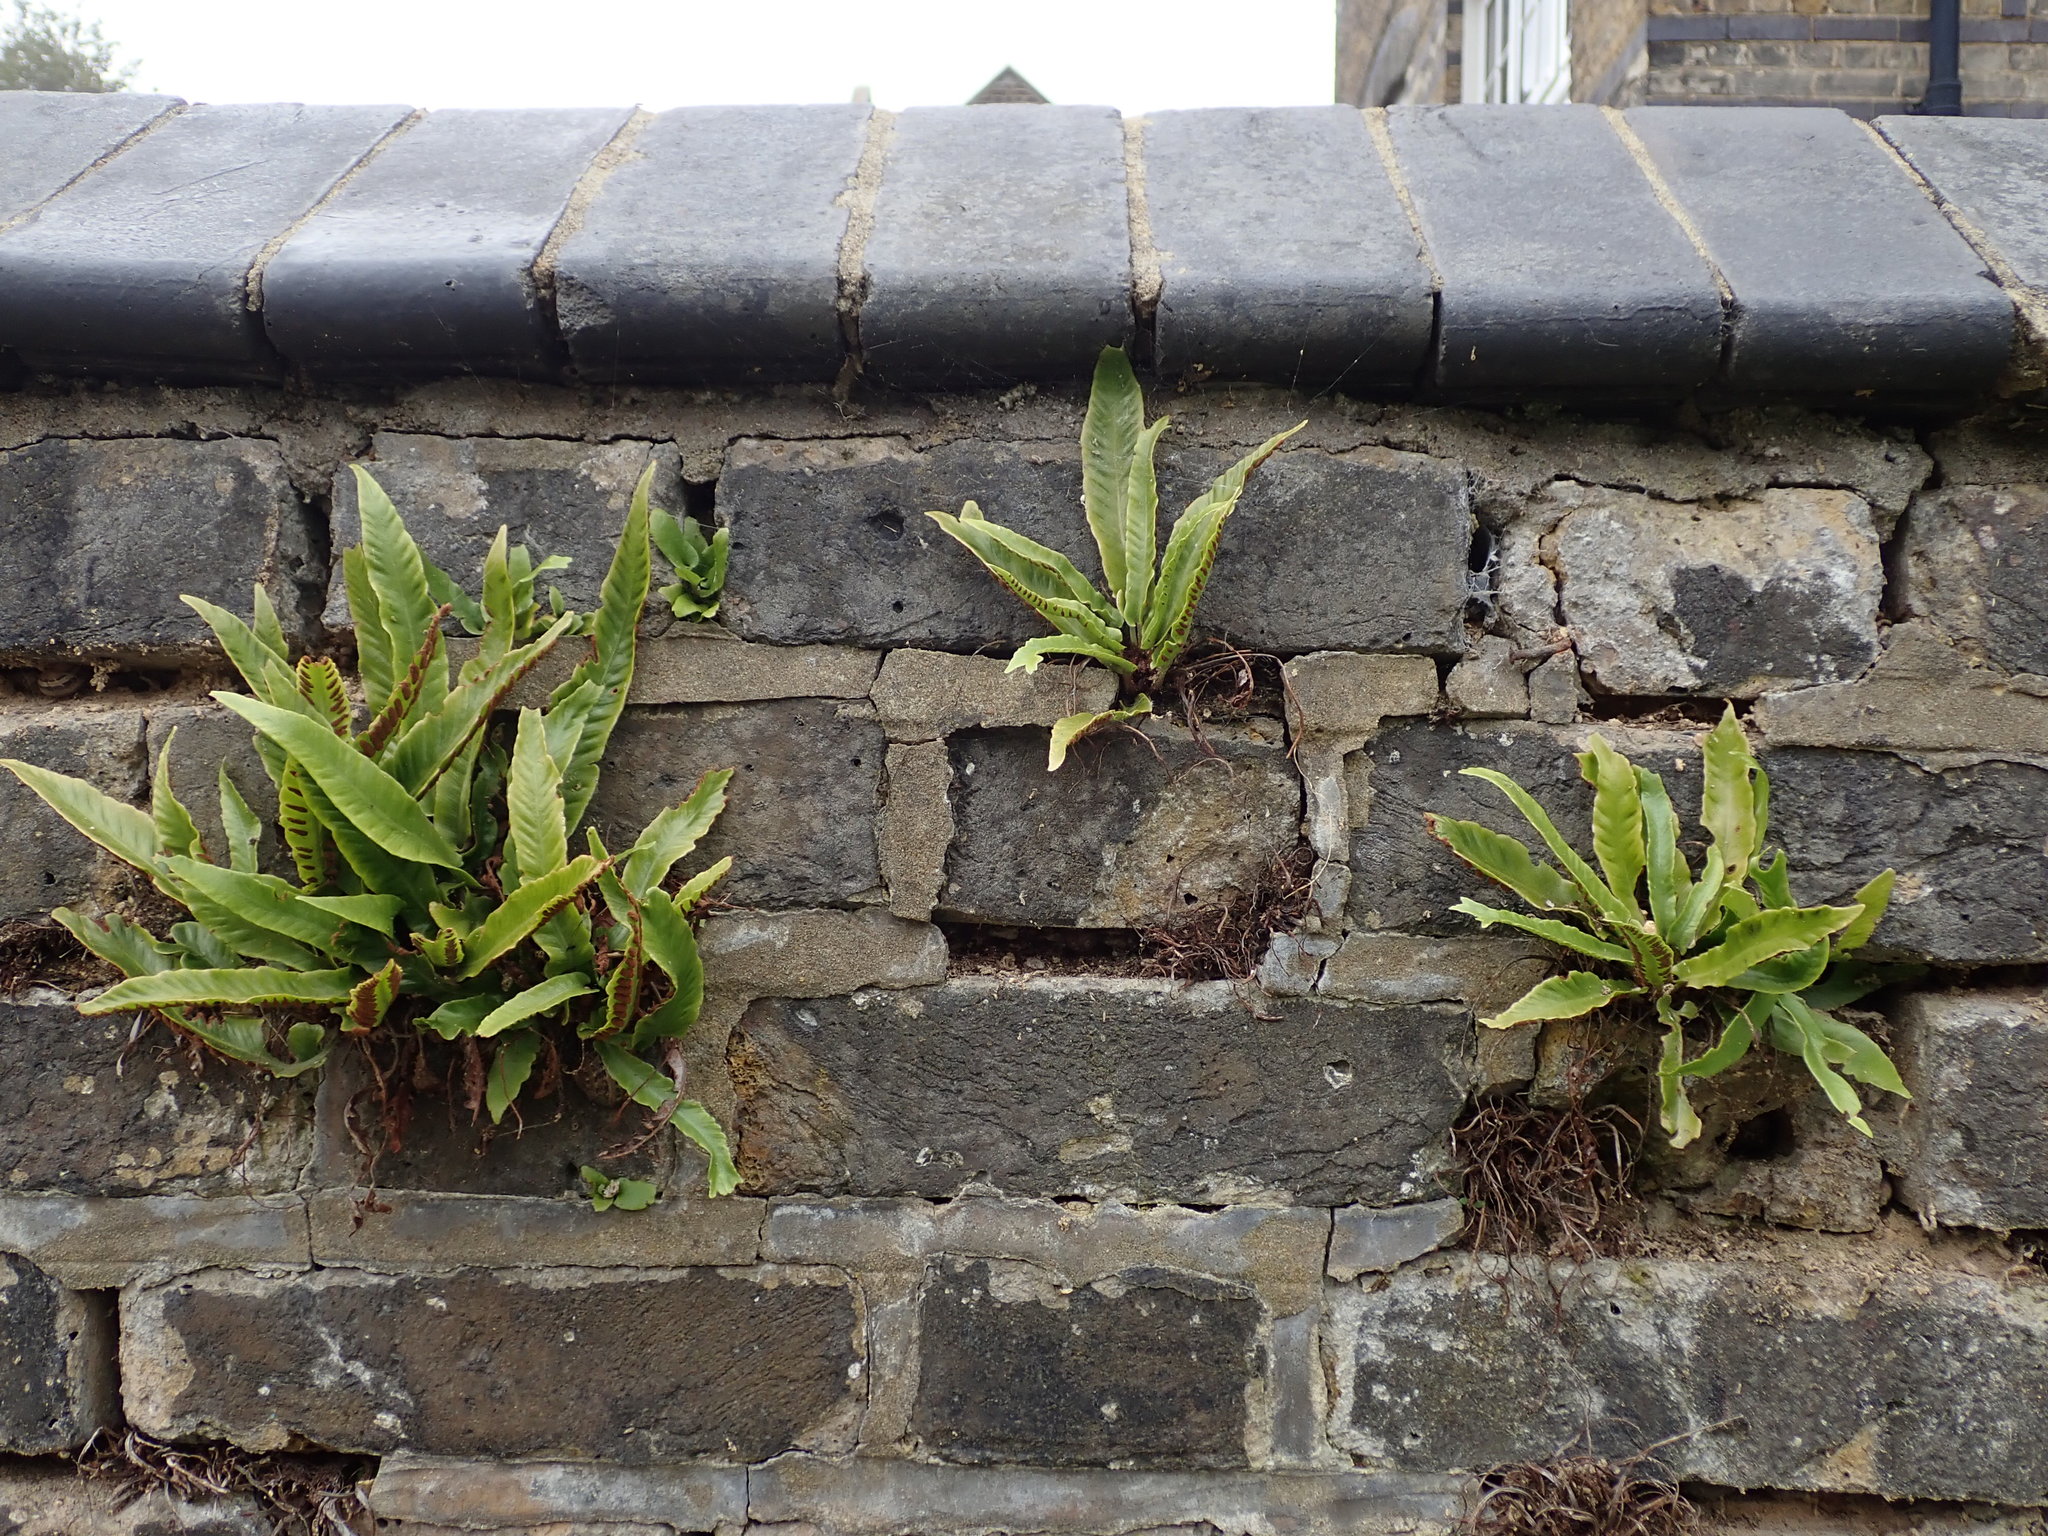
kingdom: Plantae
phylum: Tracheophyta
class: Polypodiopsida
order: Polypodiales
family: Aspleniaceae
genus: Asplenium
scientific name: Asplenium scolopendrium
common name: Hart's-tongue fern
